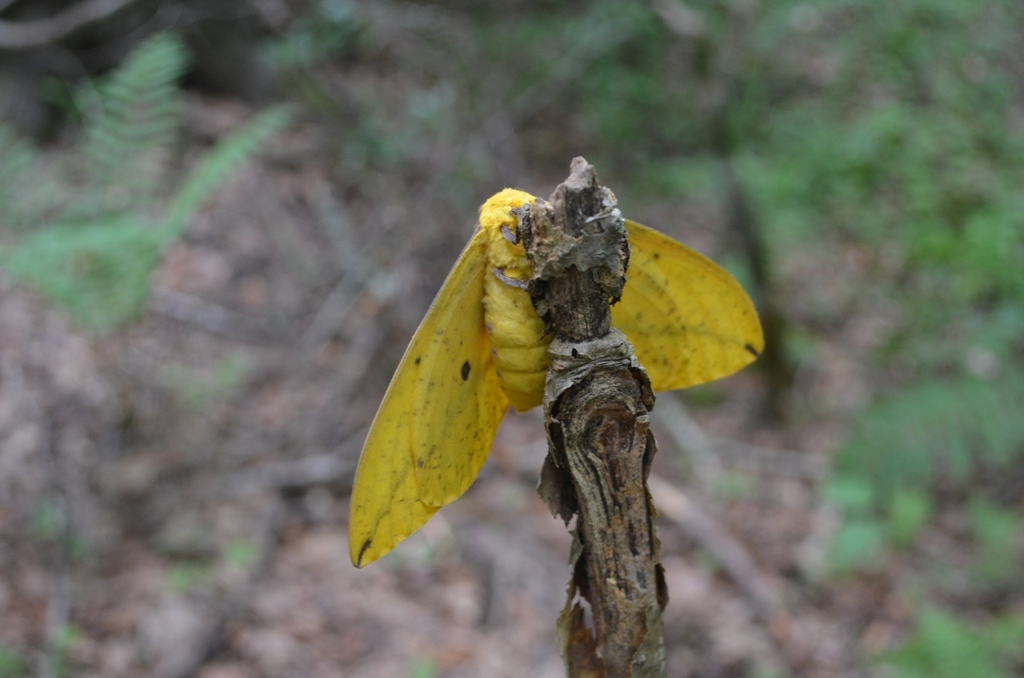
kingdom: Animalia
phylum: Arthropoda
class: Insecta
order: Lepidoptera
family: Saturniidae
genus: Eacles
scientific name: Eacles imperialis
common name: Imperial moth
